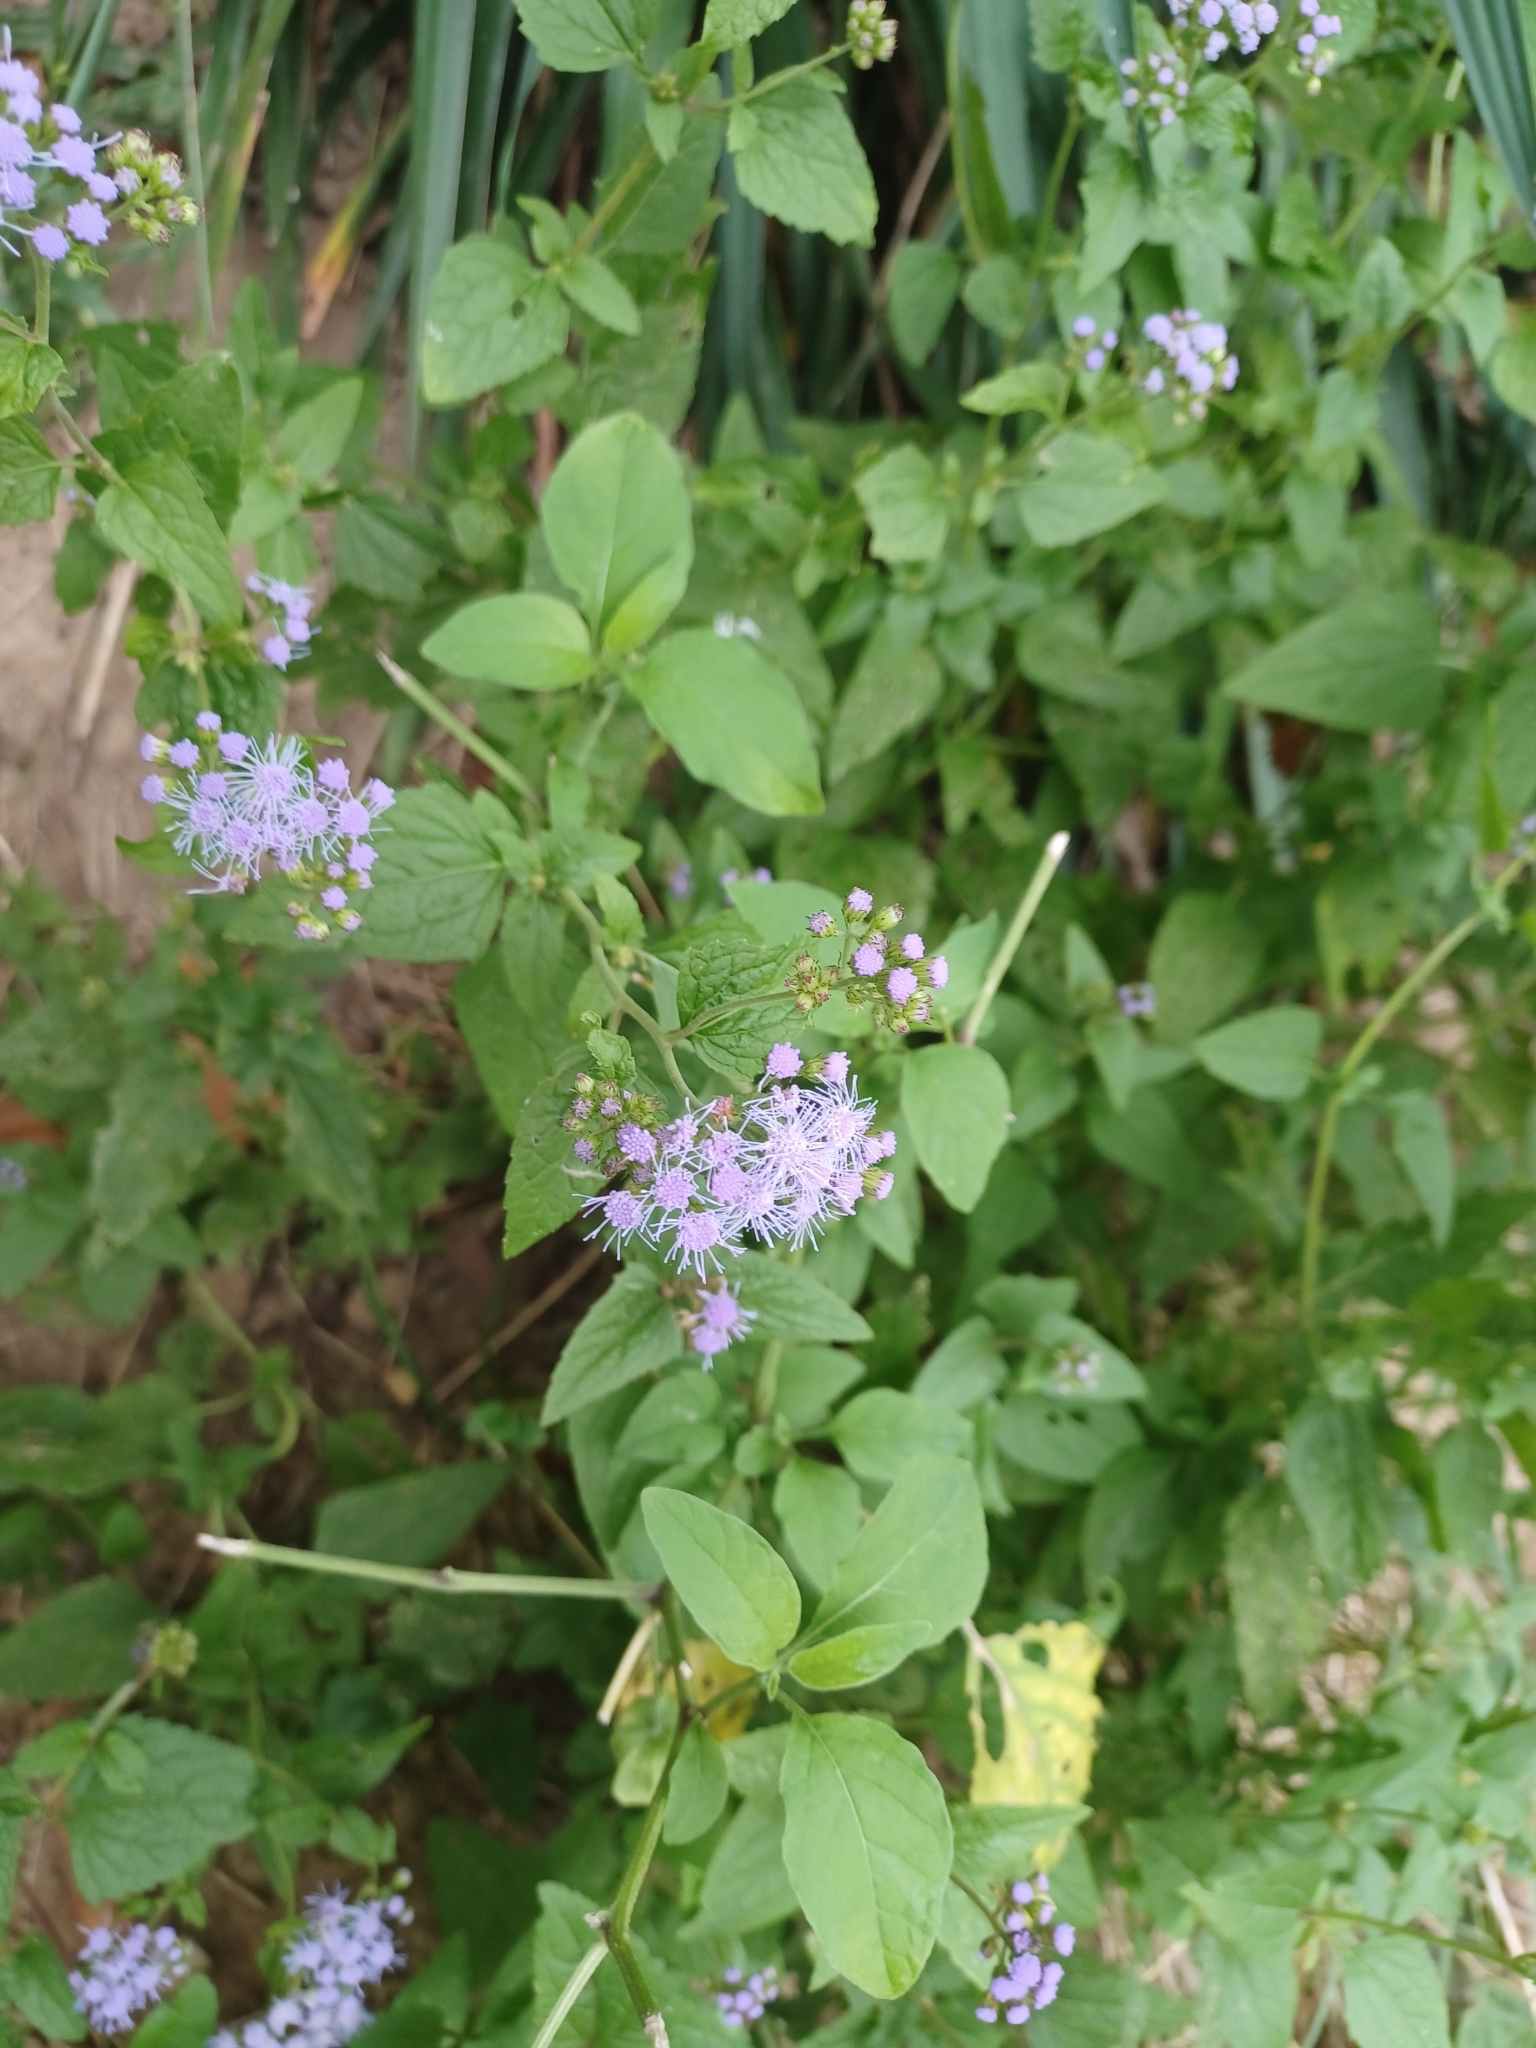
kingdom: Plantae
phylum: Tracheophyta
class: Magnoliopsida
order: Asterales
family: Asteraceae
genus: Conoclinium
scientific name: Conoclinium coelestinum
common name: Blue mistflower
